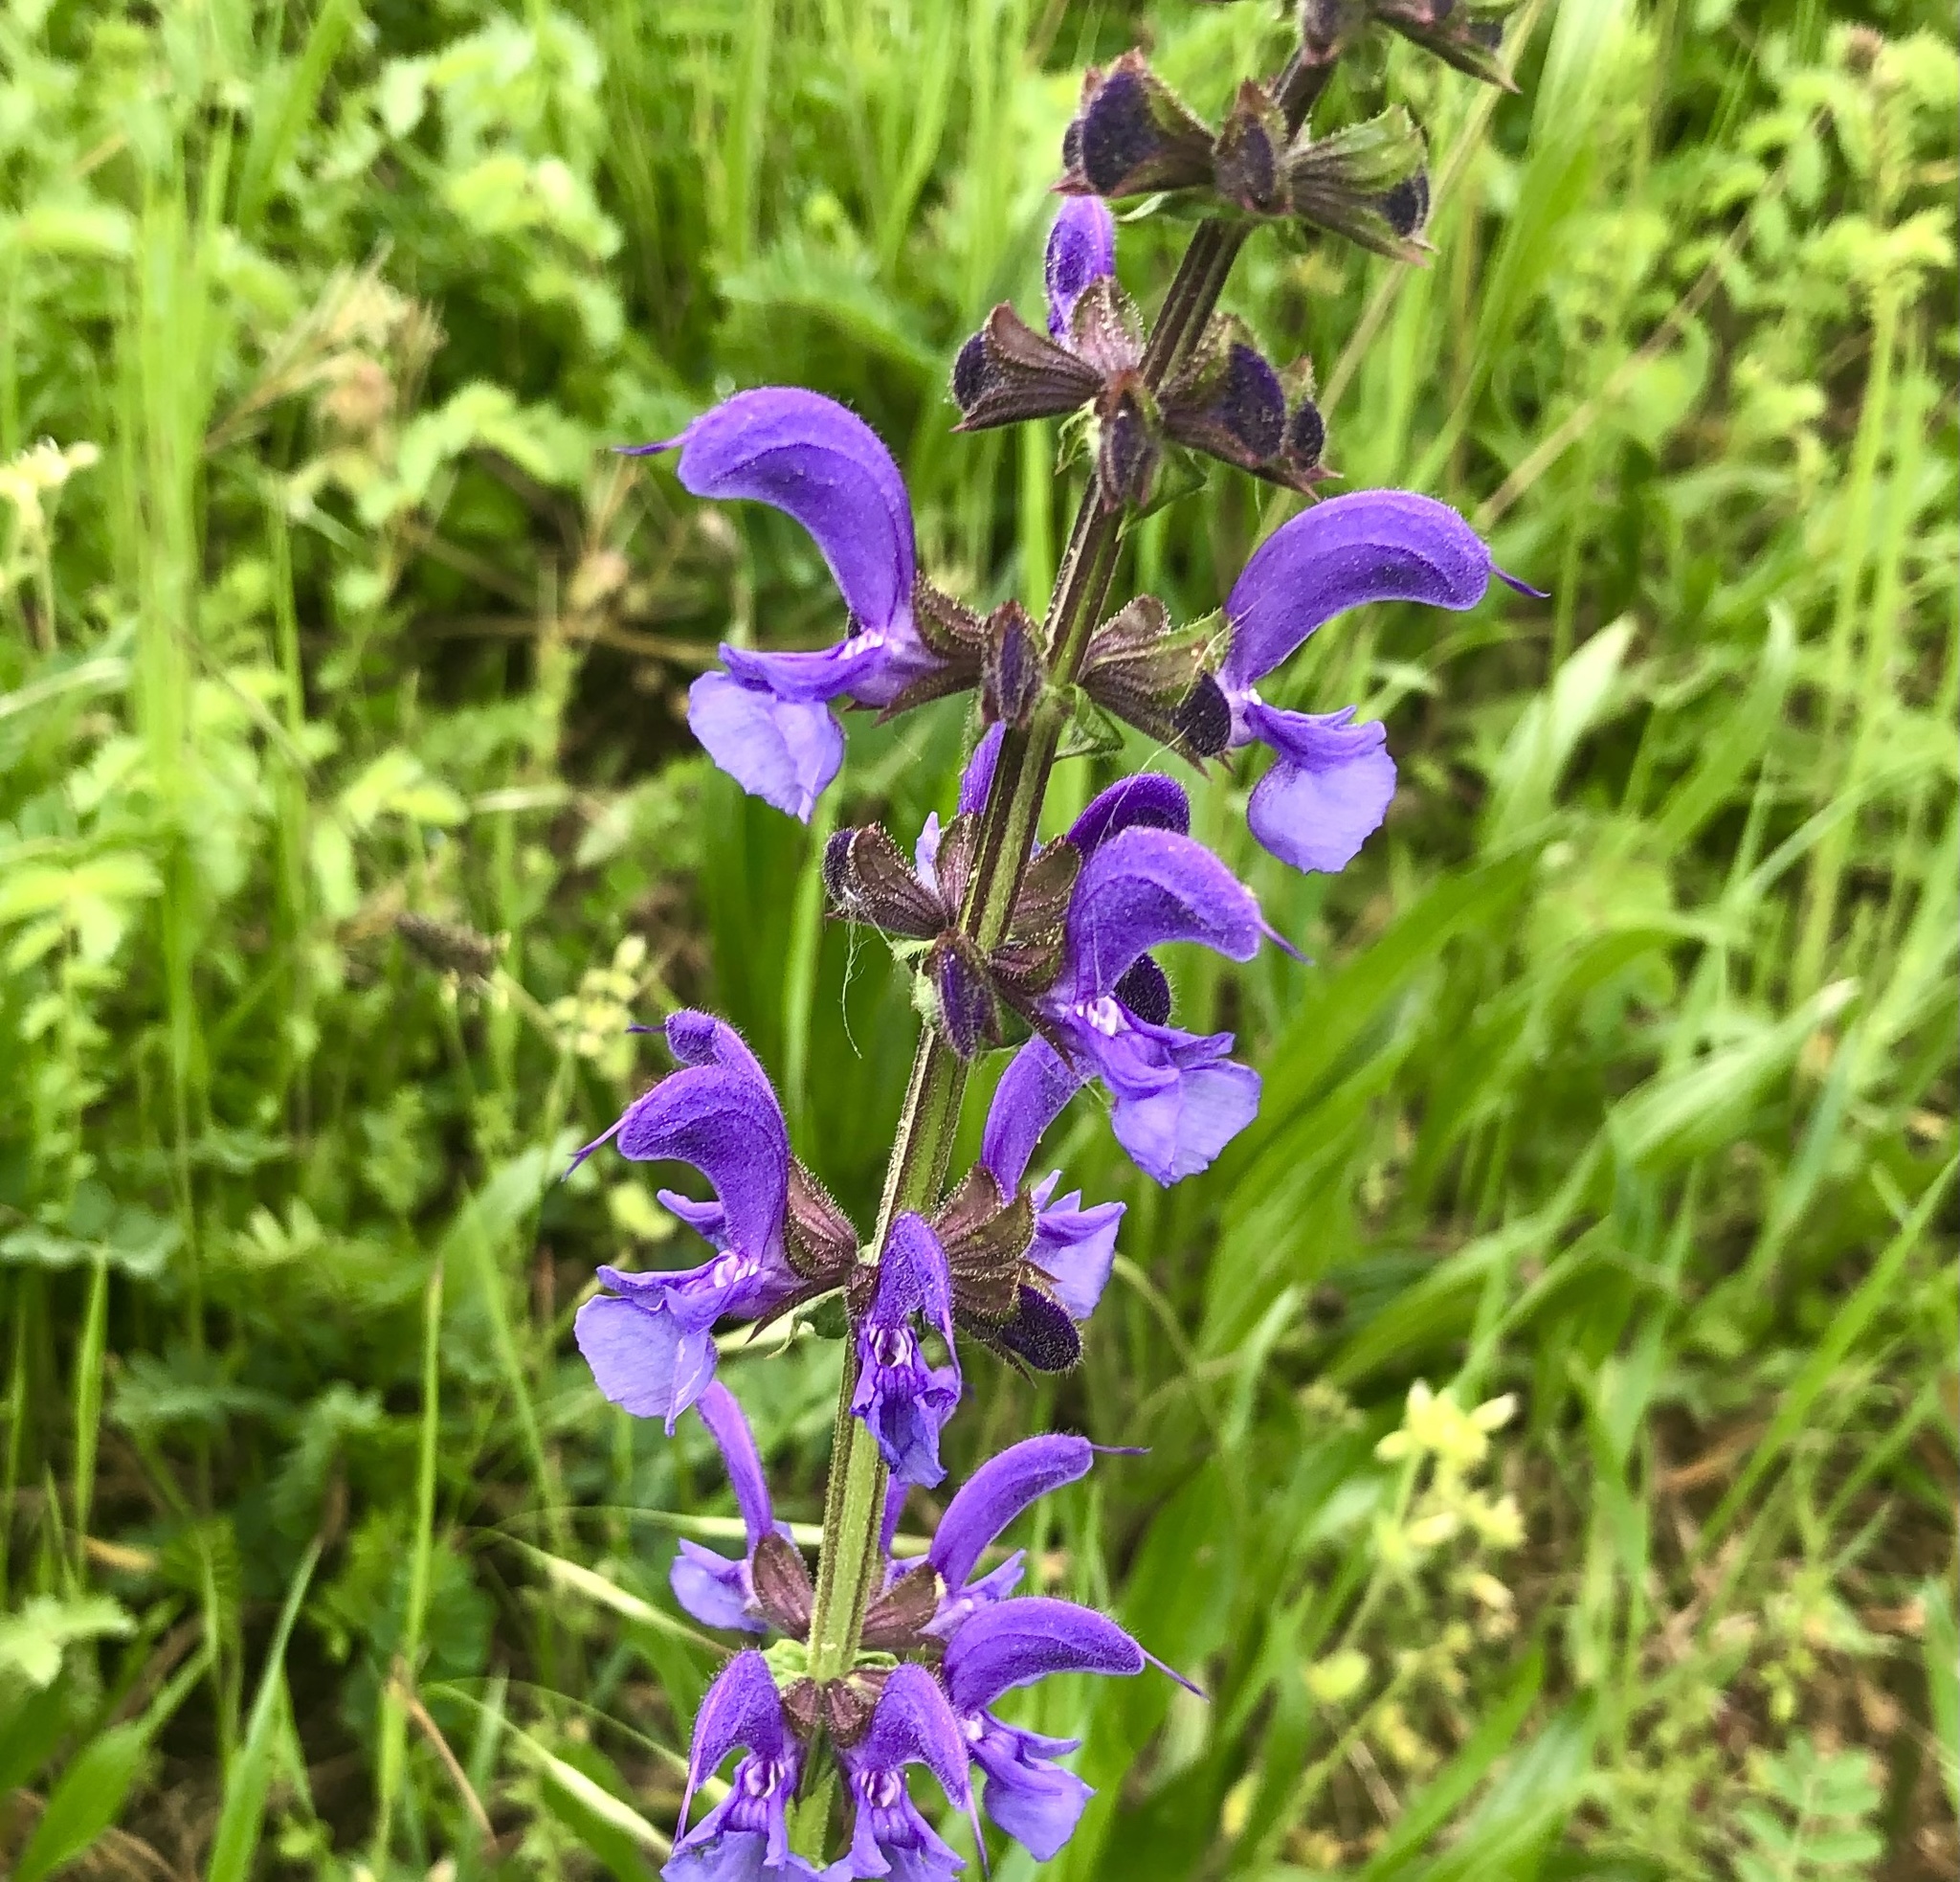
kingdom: Plantae
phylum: Tracheophyta
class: Magnoliopsida
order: Lamiales
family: Lamiaceae
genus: Salvia
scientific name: Salvia pratensis
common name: Meadow sage
